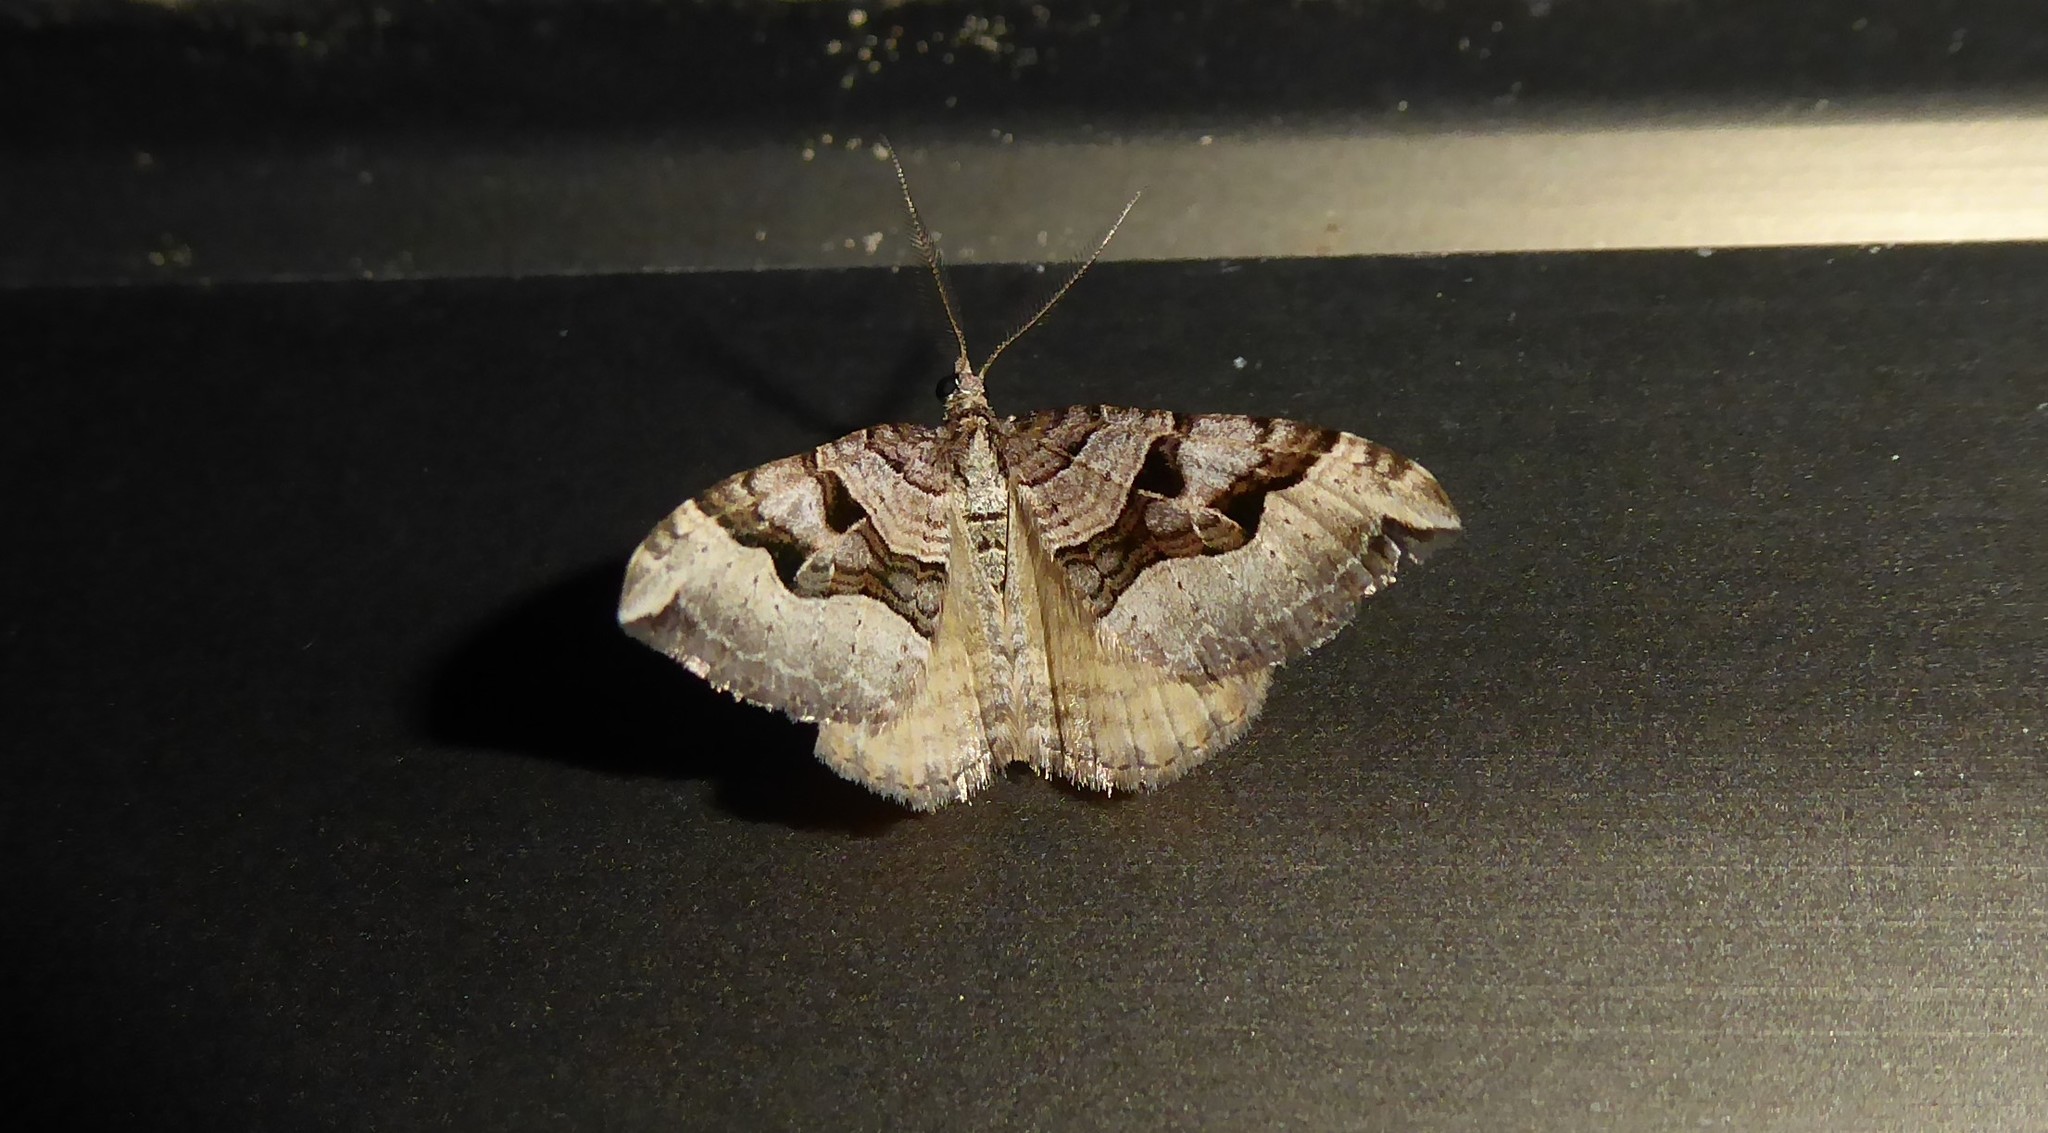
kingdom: Animalia
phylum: Arthropoda
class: Insecta
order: Lepidoptera
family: Geometridae
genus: Xanthorhoe
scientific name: Xanthorhoe semifissata
